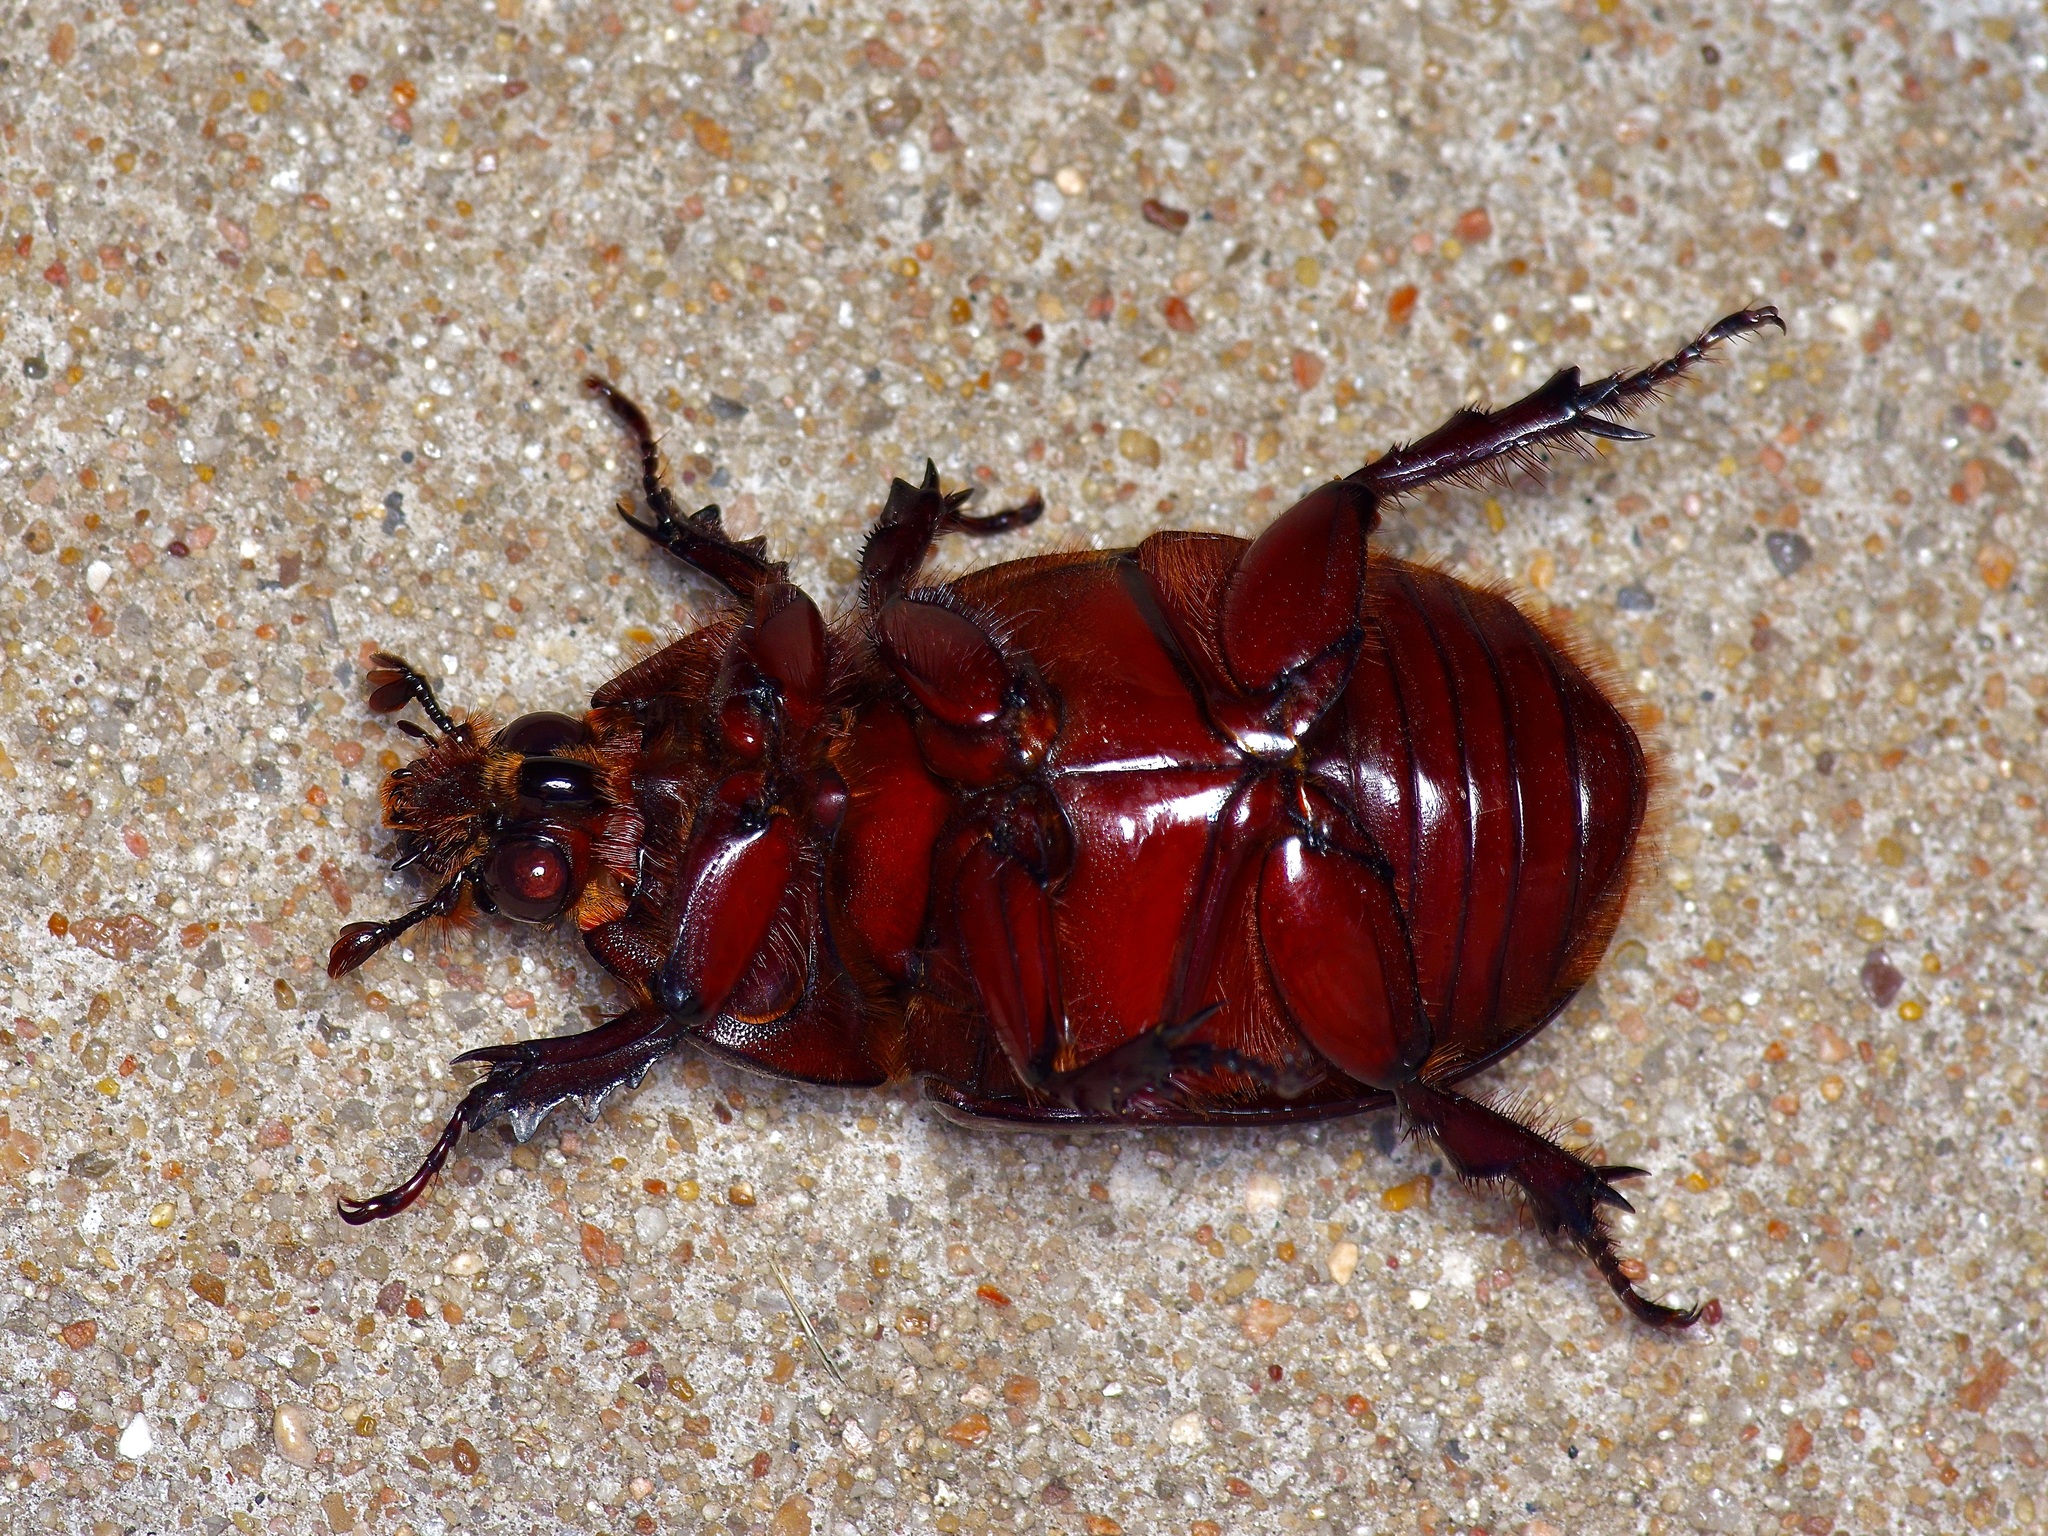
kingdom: Animalia
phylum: Arthropoda
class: Insecta
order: Coleoptera
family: Scarabaeidae
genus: Strategus
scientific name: Strategus aloeus
